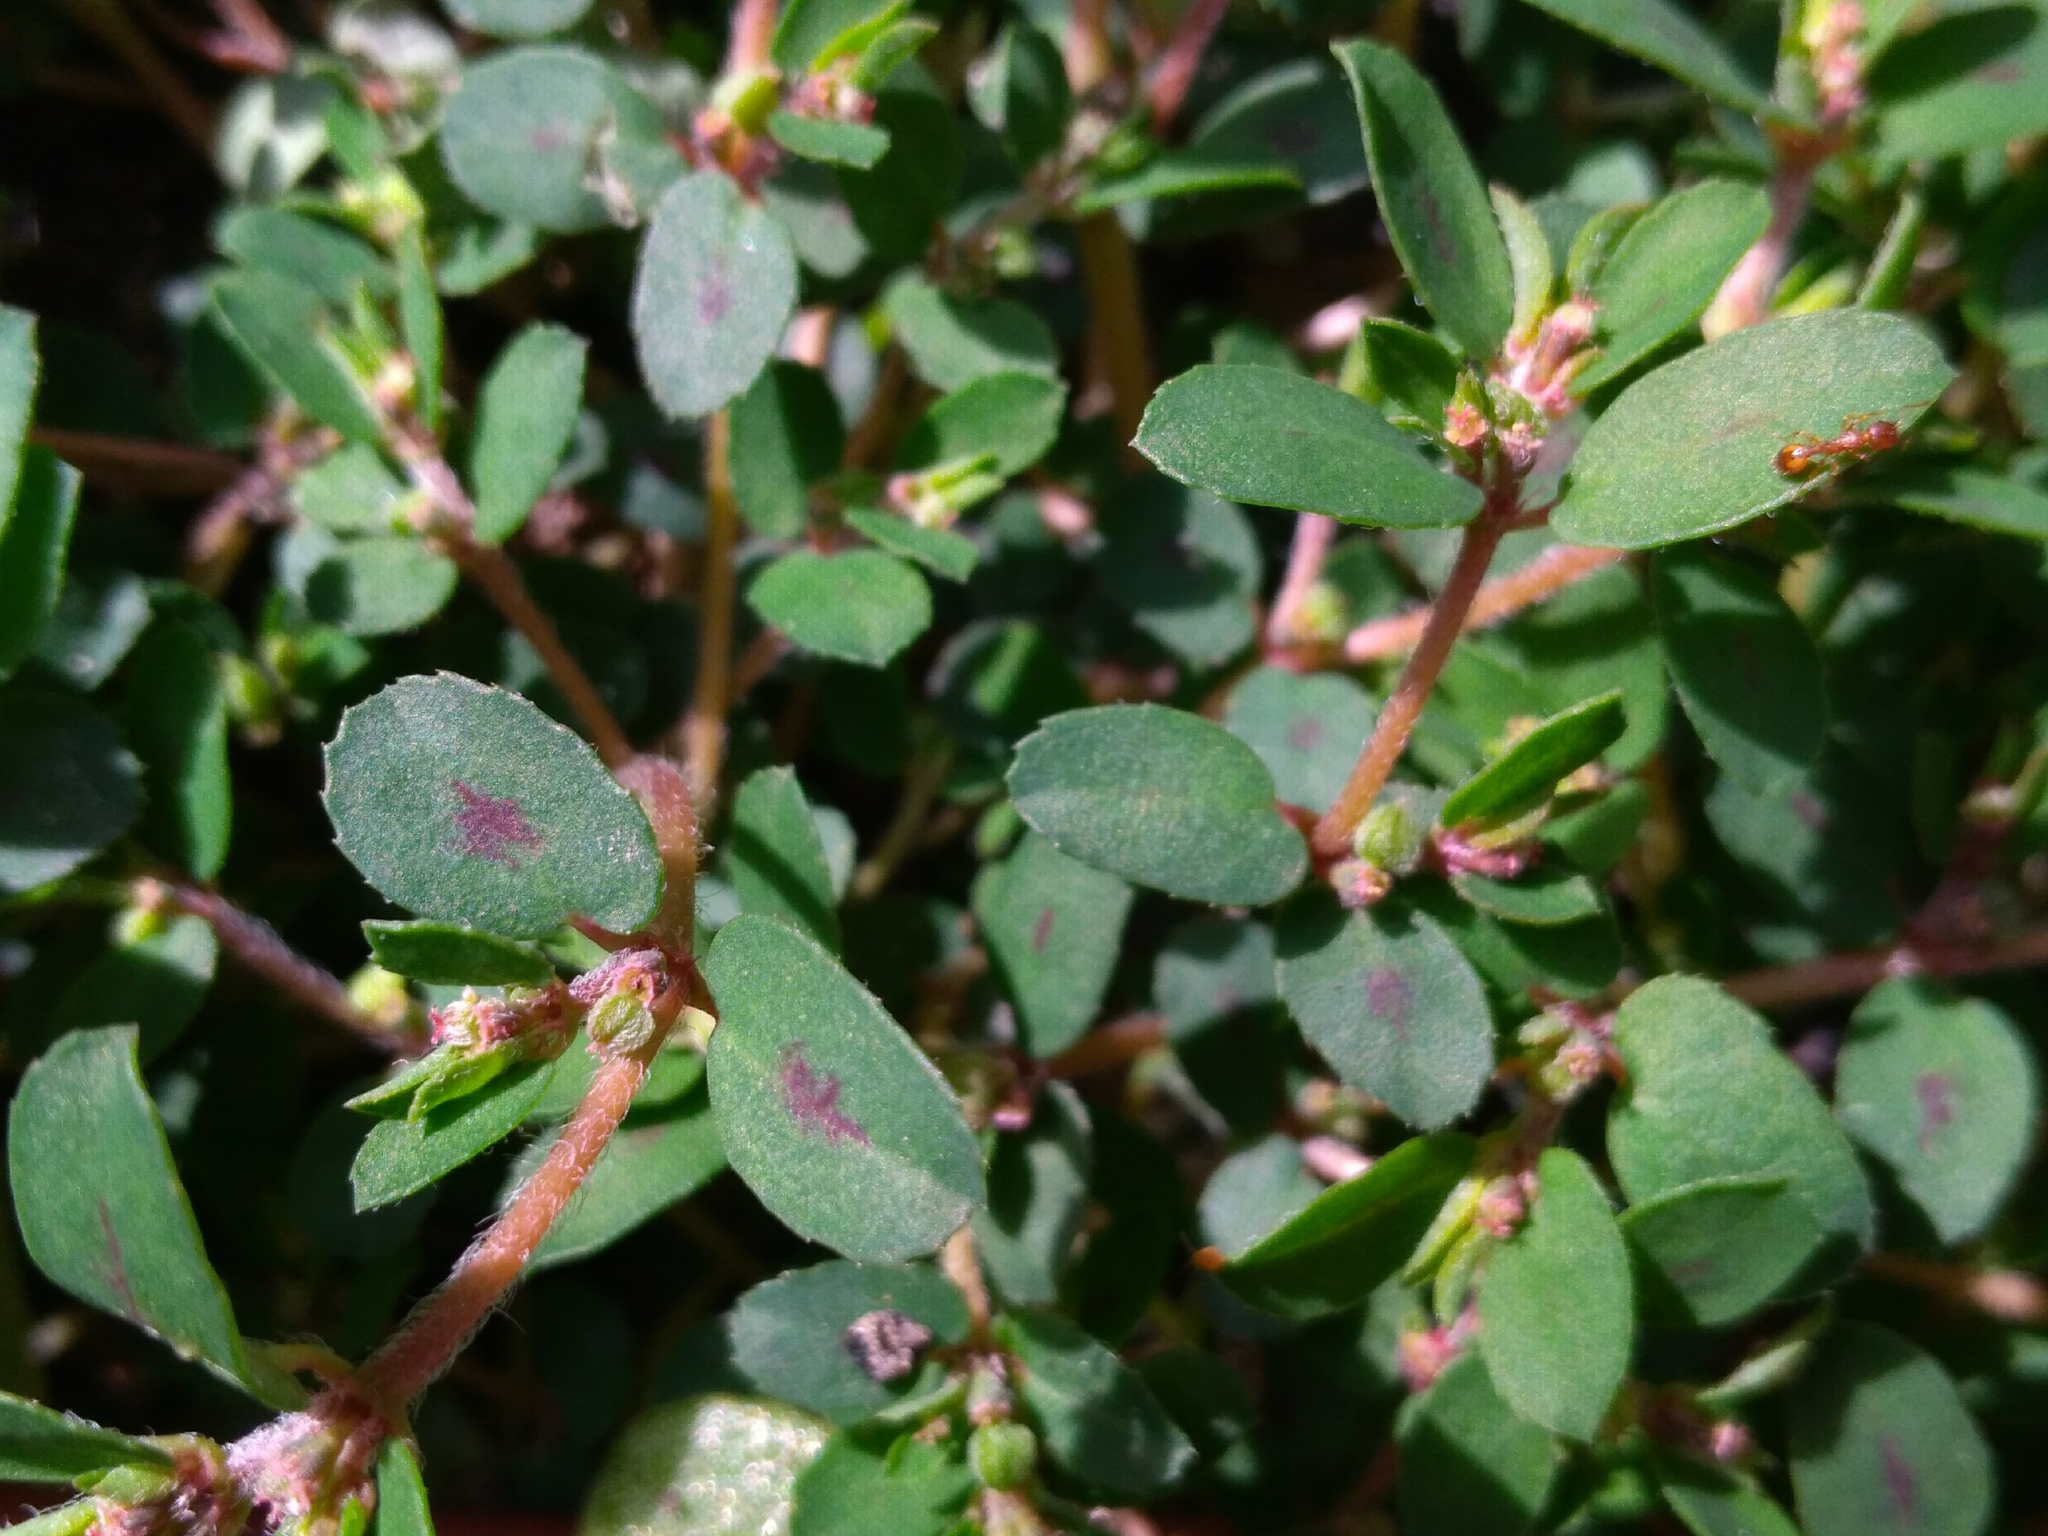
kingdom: Plantae
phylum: Tracheophyta
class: Magnoliopsida
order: Malpighiales
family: Euphorbiaceae
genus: Euphorbia
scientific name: Euphorbia maculata
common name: Spotted spurge
